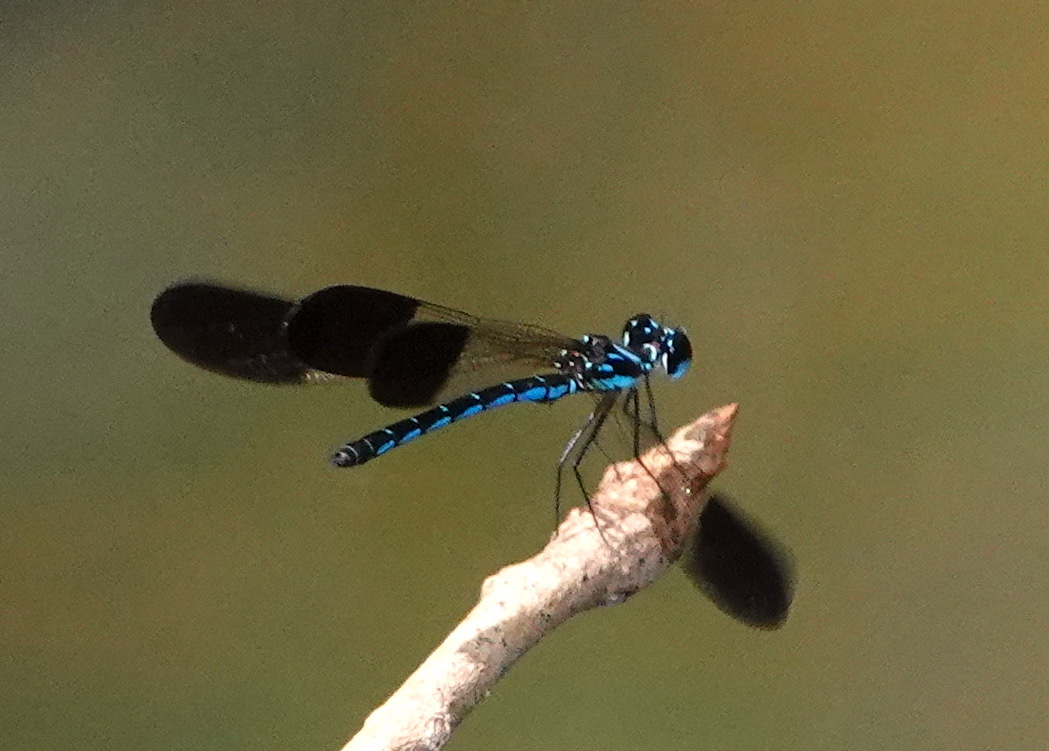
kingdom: Animalia
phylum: Arthropoda
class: Insecta
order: Odonata
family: Chlorocyphidae
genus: Rhinocypha
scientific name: Rhinocypha humeralis
